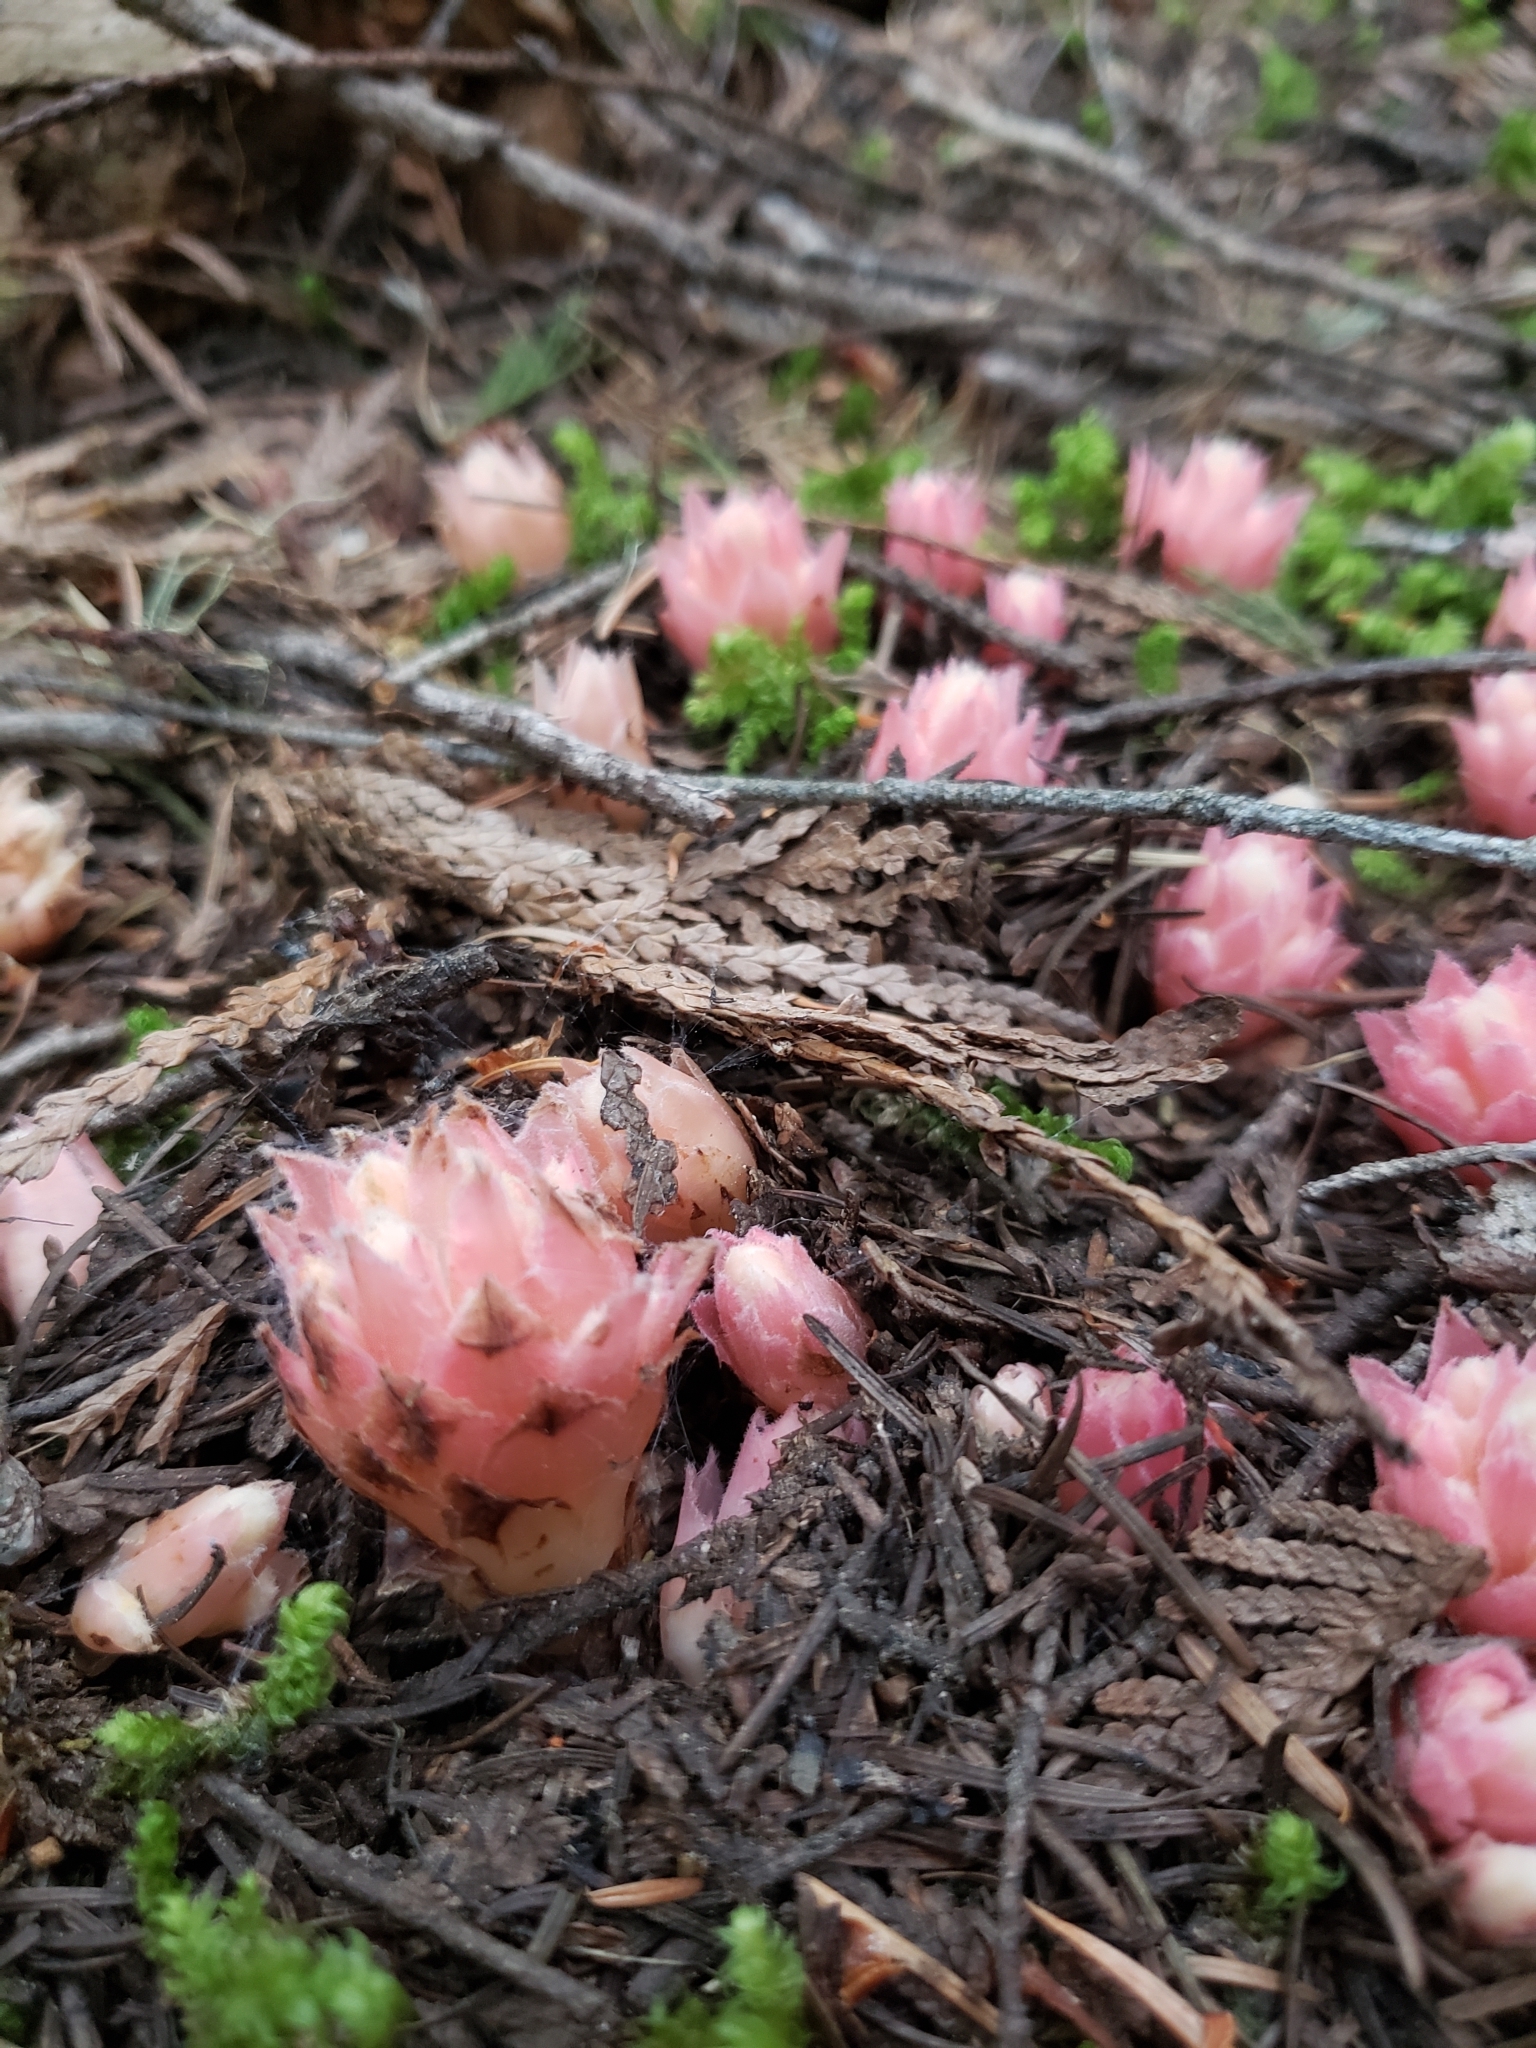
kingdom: Plantae
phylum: Tracheophyta
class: Magnoliopsida
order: Ericales
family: Ericaceae
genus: Hemitomes
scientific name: Hemitomes congestum
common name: Cone plant
